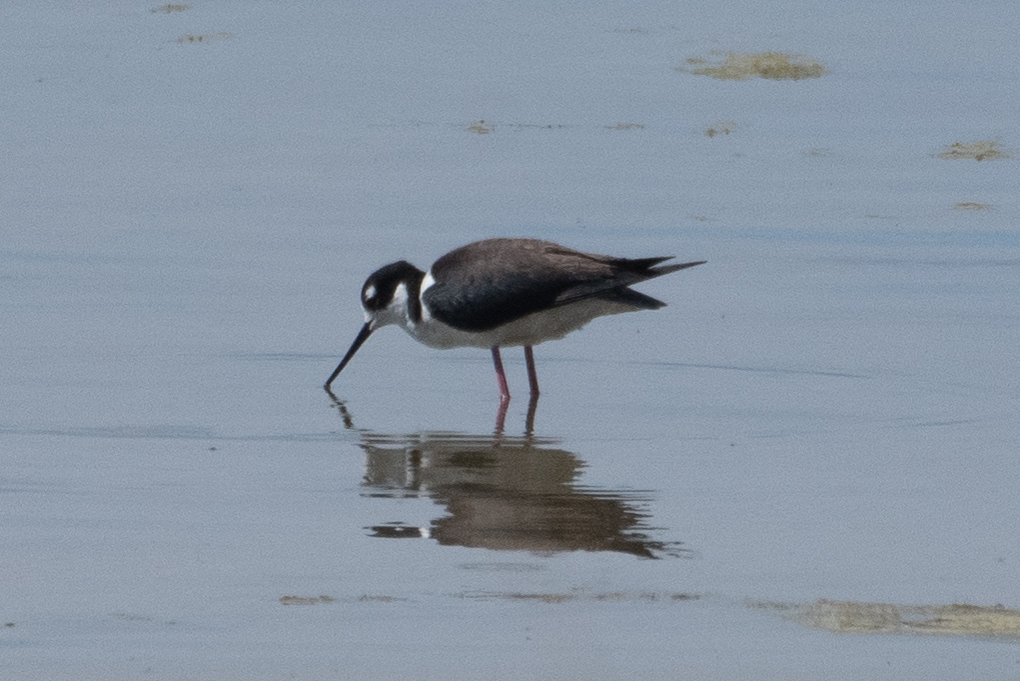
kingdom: Animalia
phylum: Chordata
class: Aves
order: Charadriiformes
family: Recurvirostridae
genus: Himantopus
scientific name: Himantopus mexicanus
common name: Black-necked stilt
